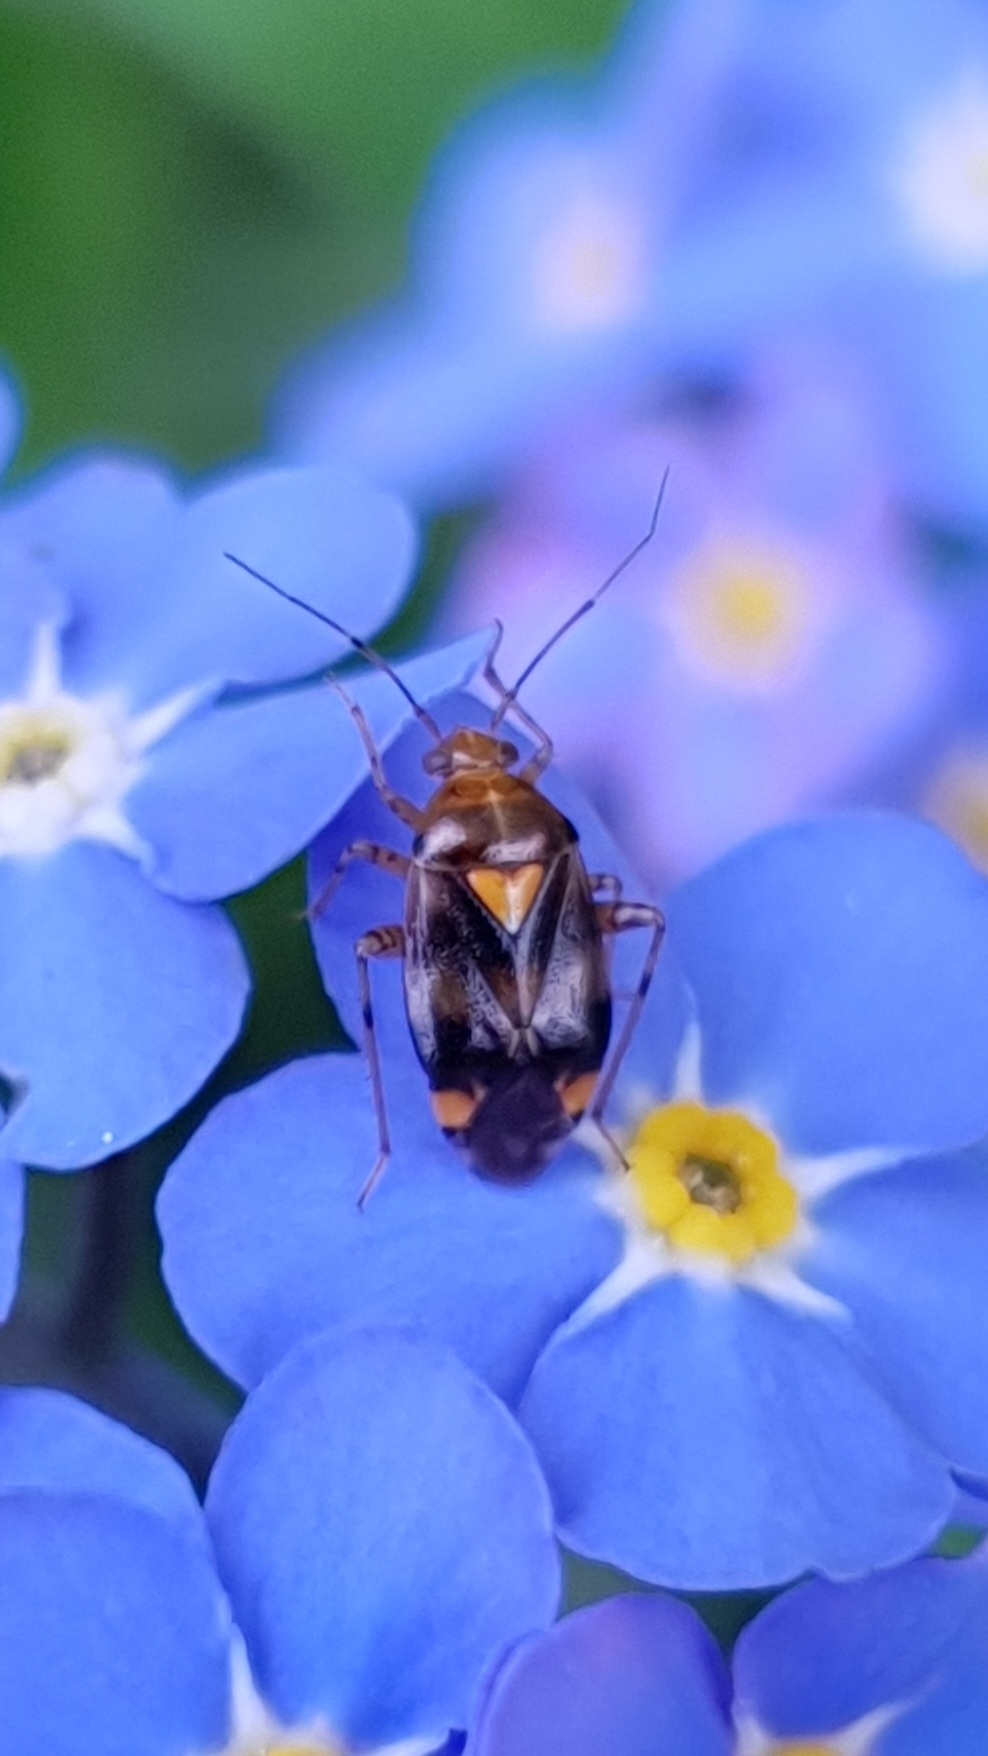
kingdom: Animalia
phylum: Arthropoda
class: Insecta
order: Hemiptera
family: Miridae
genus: Liocoris
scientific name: Liocoris tripustulatus
